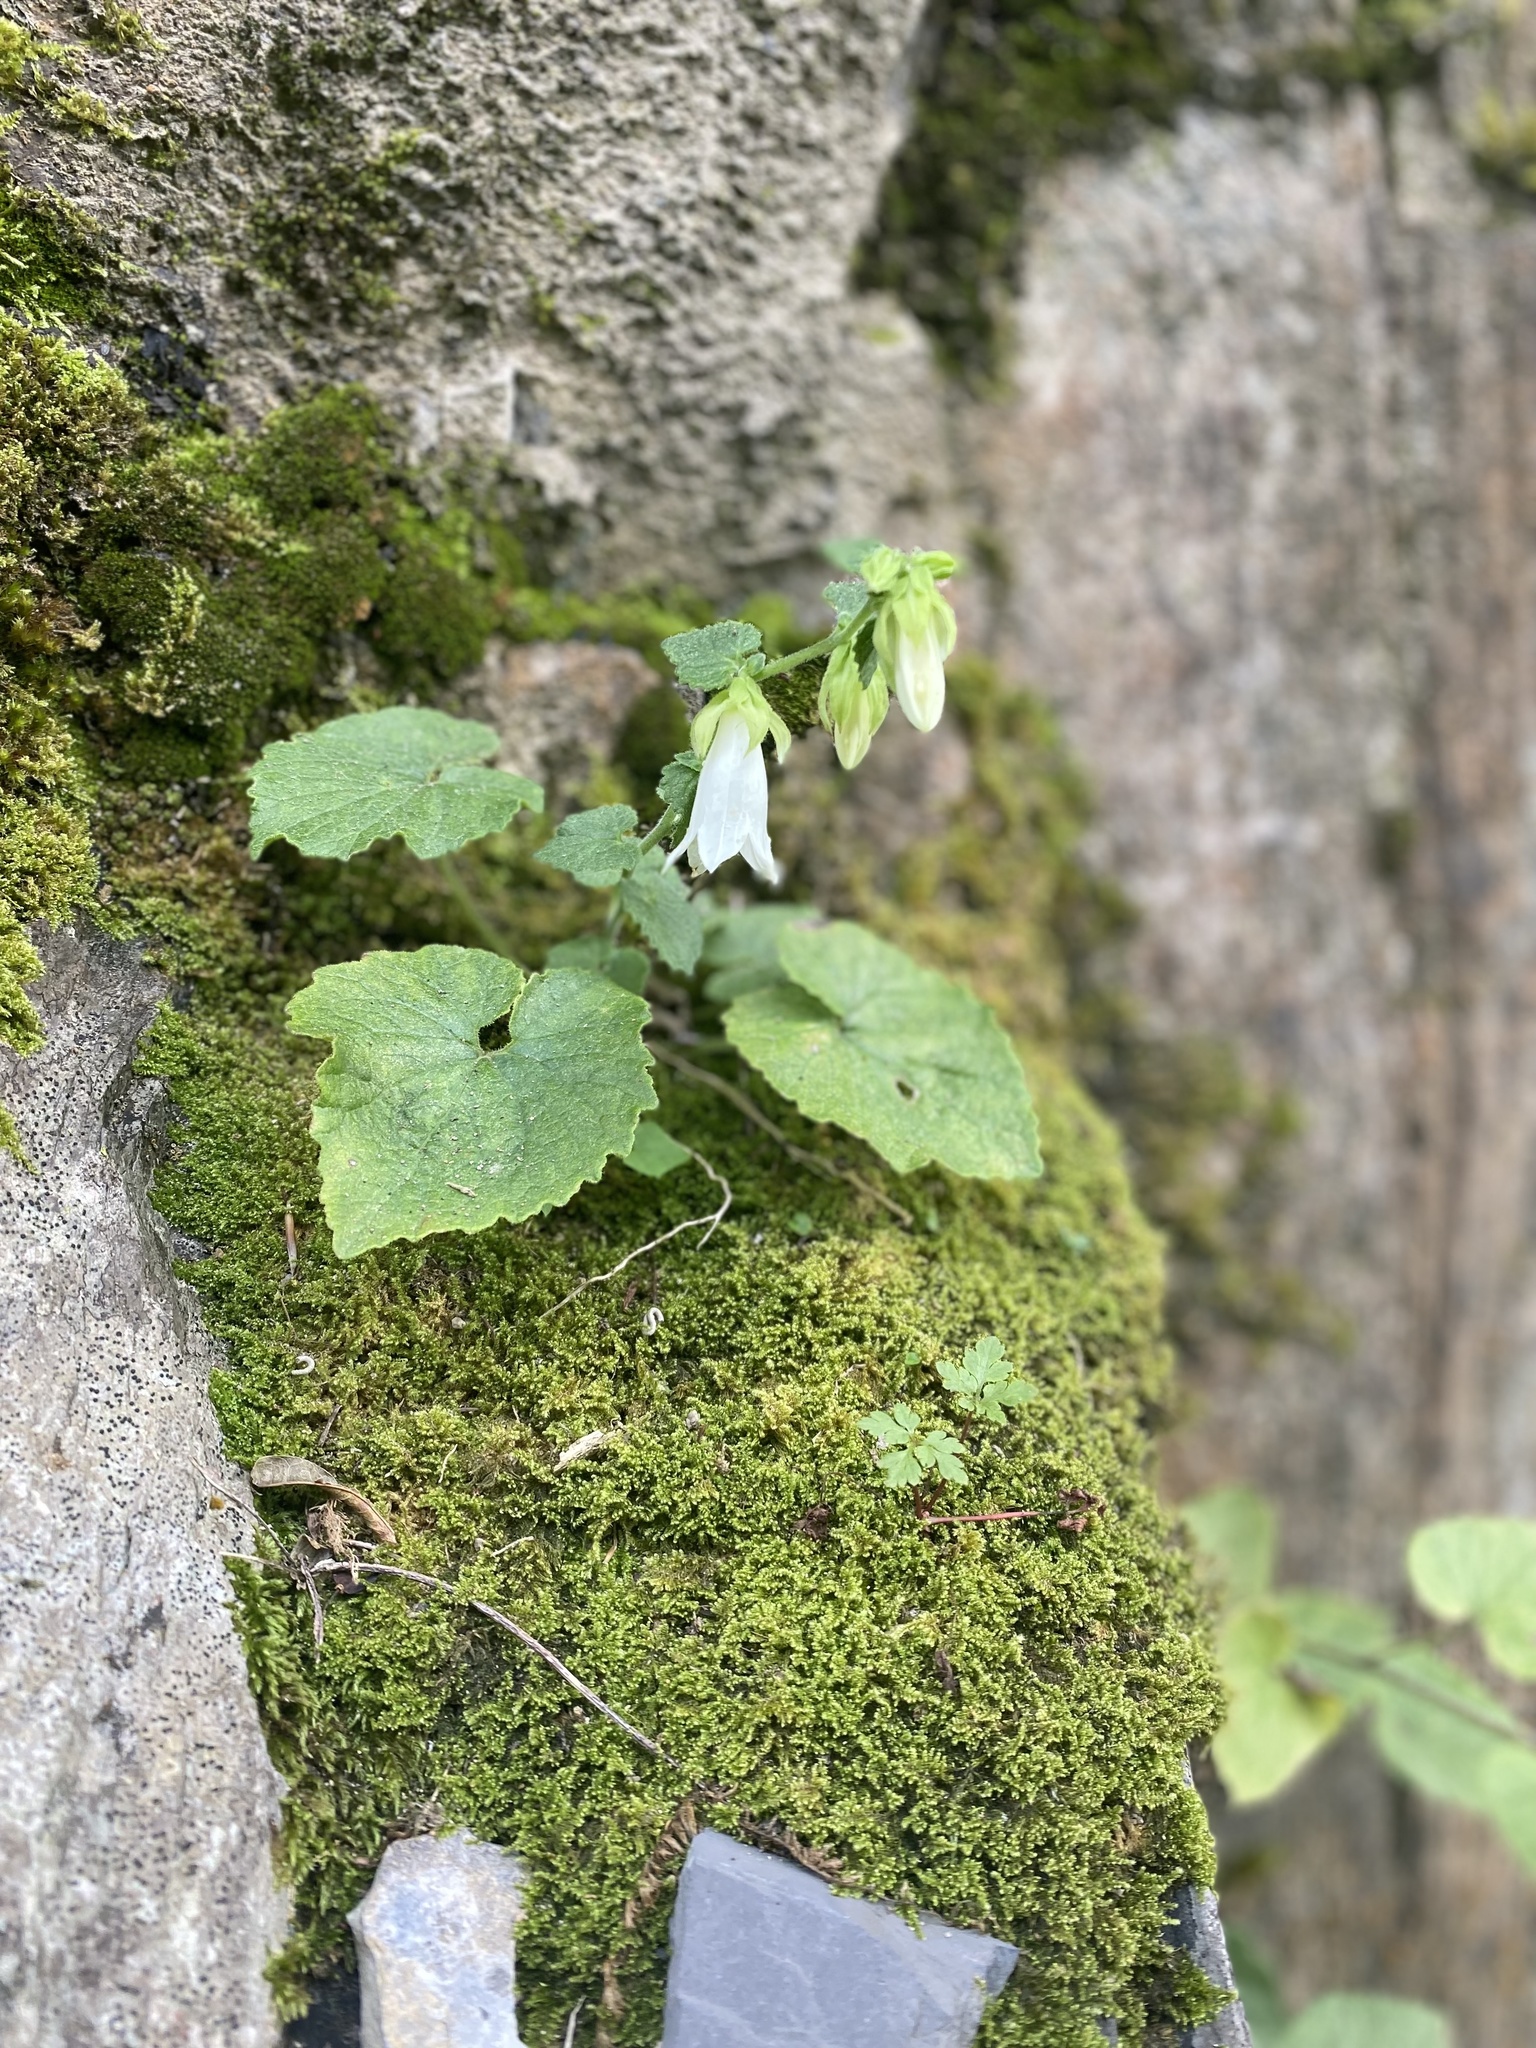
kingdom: Plantae
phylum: Tracheophyta
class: Magnoliopsida
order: Asterales
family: Campanulaceae
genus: Campanula
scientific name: Campanula pendula
